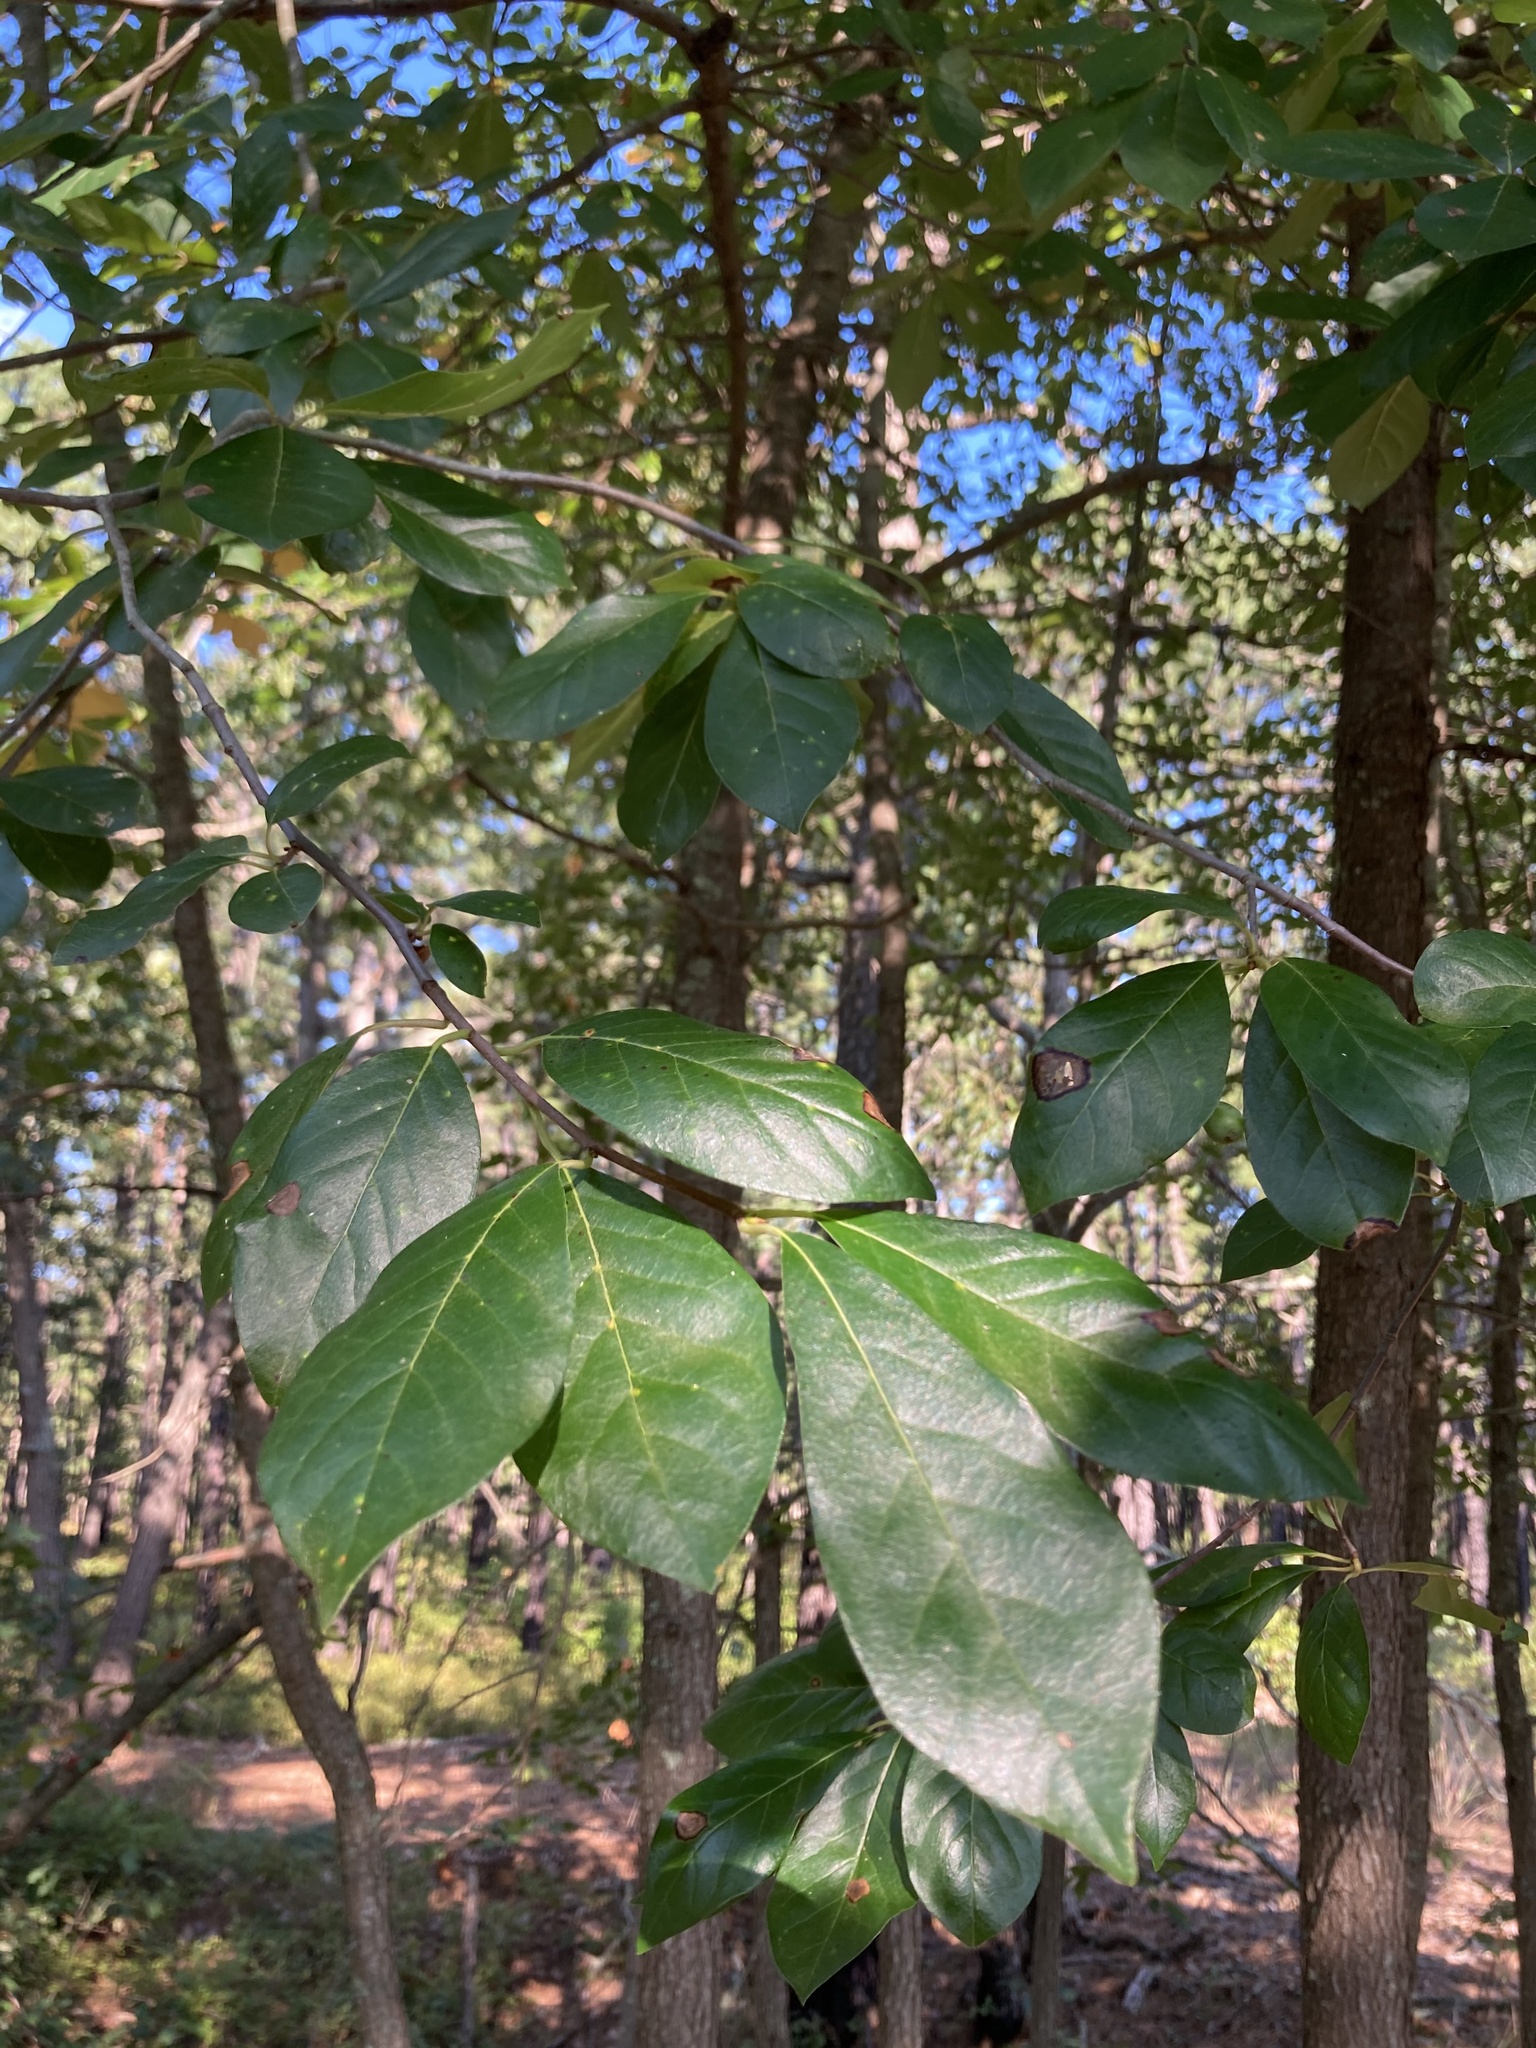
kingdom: Plantae
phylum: Tracheophyta
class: Magnoliopsida
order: Cornales
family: Nyssaceae
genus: Nyssa
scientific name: Nyssa sylvatica
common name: Black tupelo
